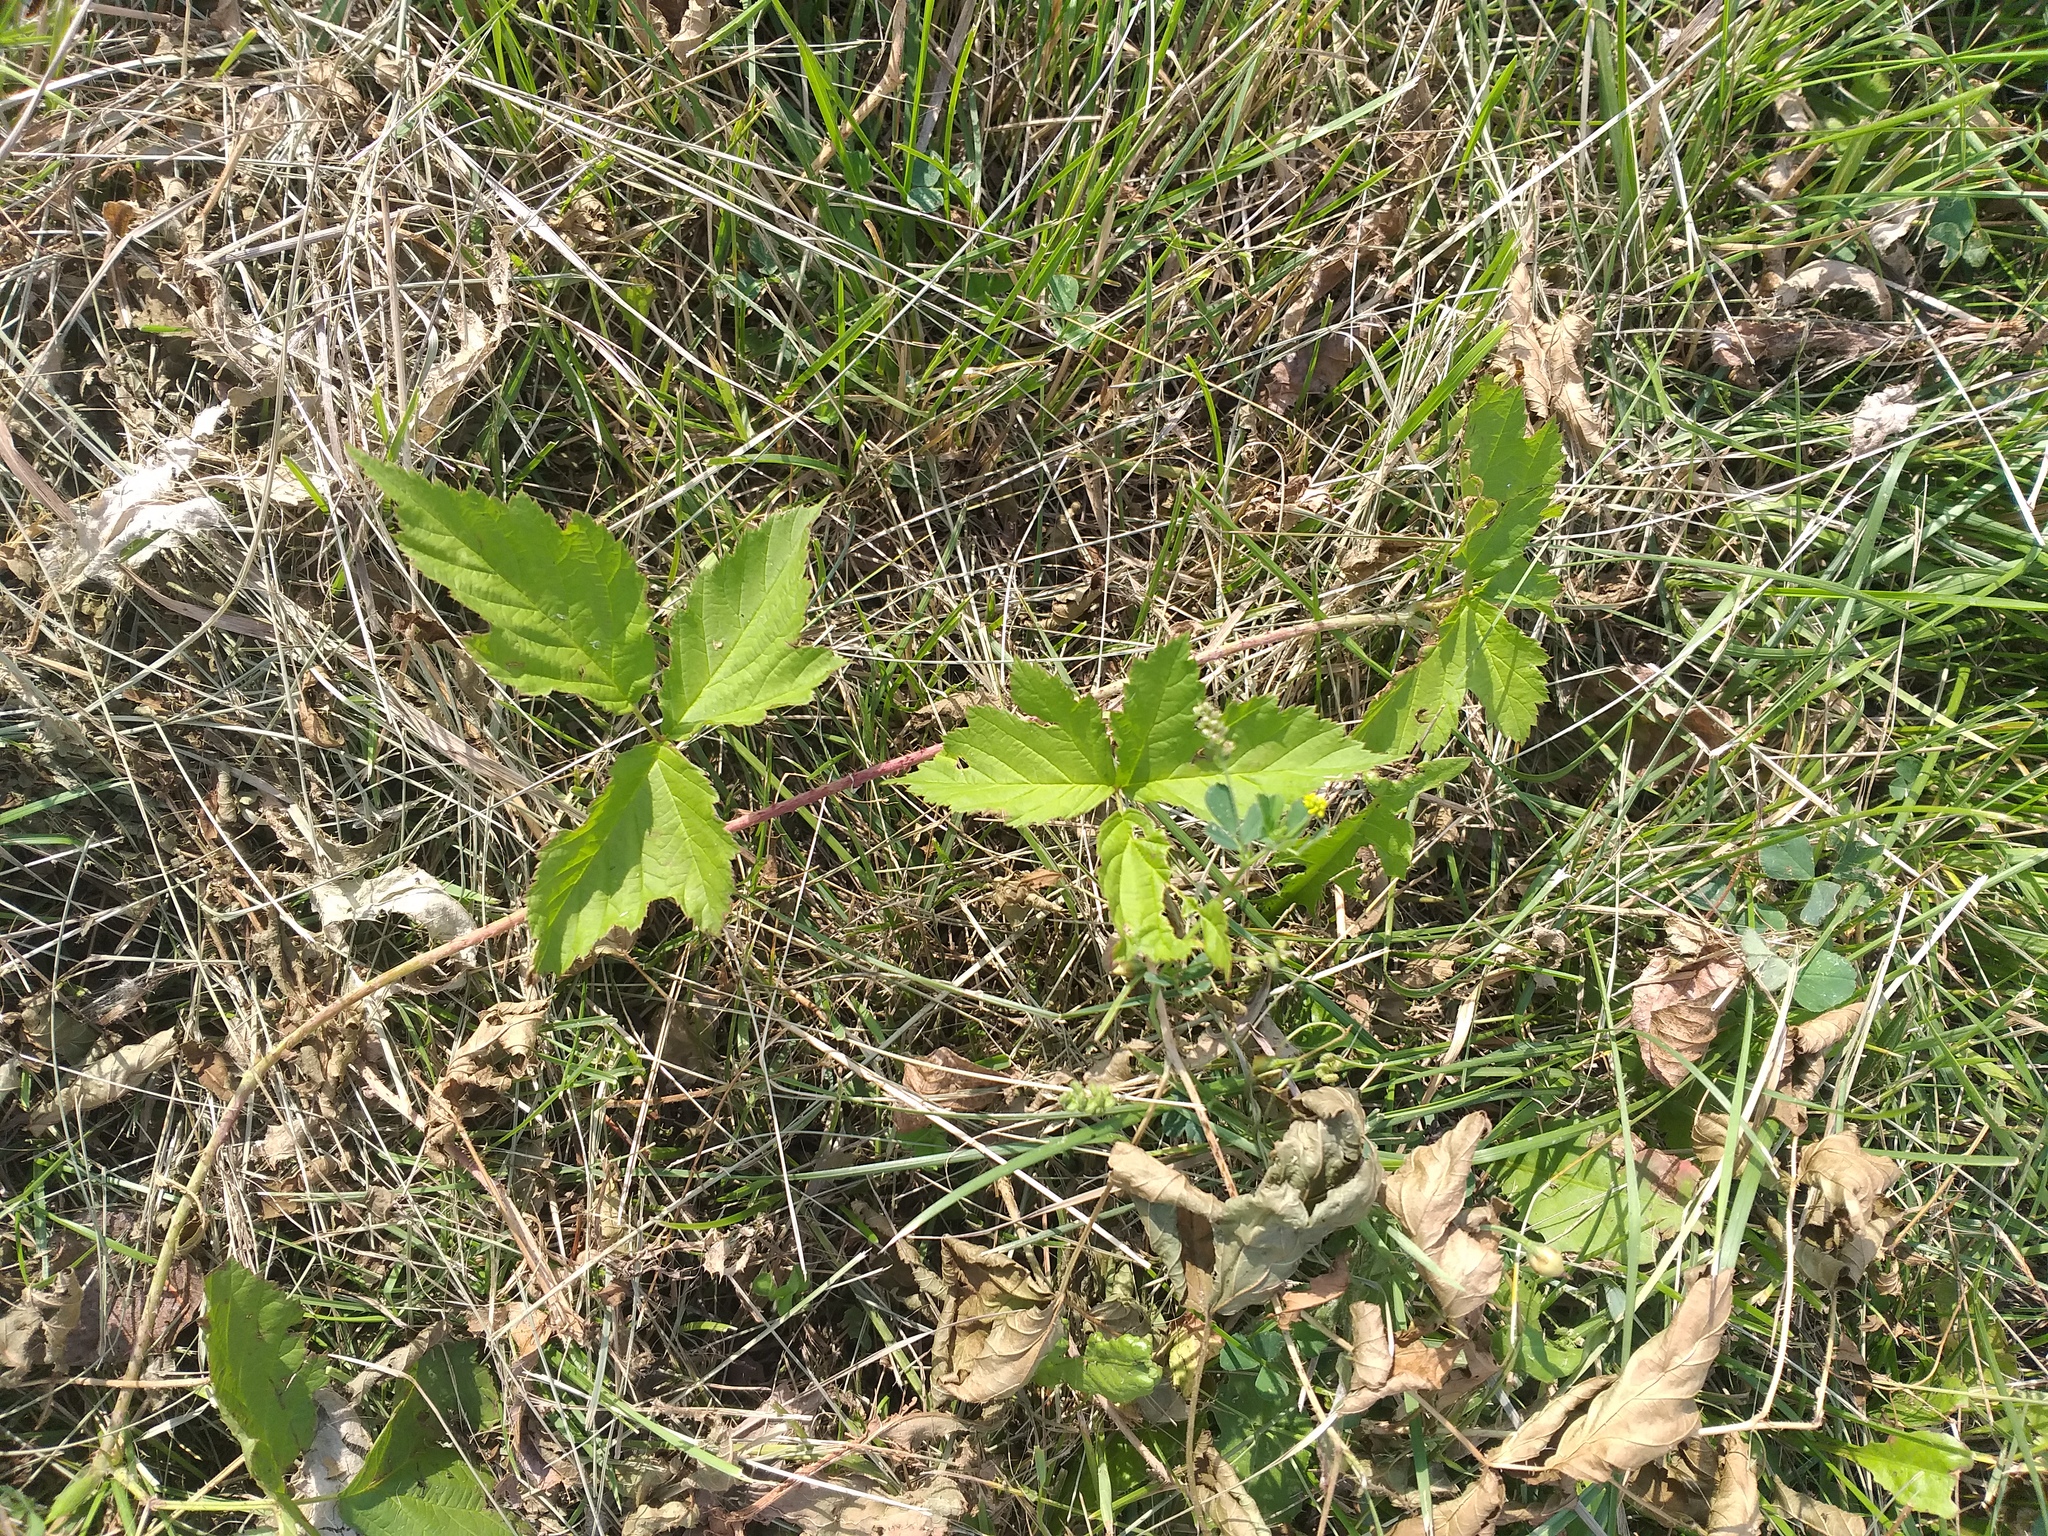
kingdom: Plantae
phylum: Tracheophyta
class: Magnoliopsida
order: Rosales
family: Rosaceae
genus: Rubus
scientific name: Rubus caesius
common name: Dewberry
